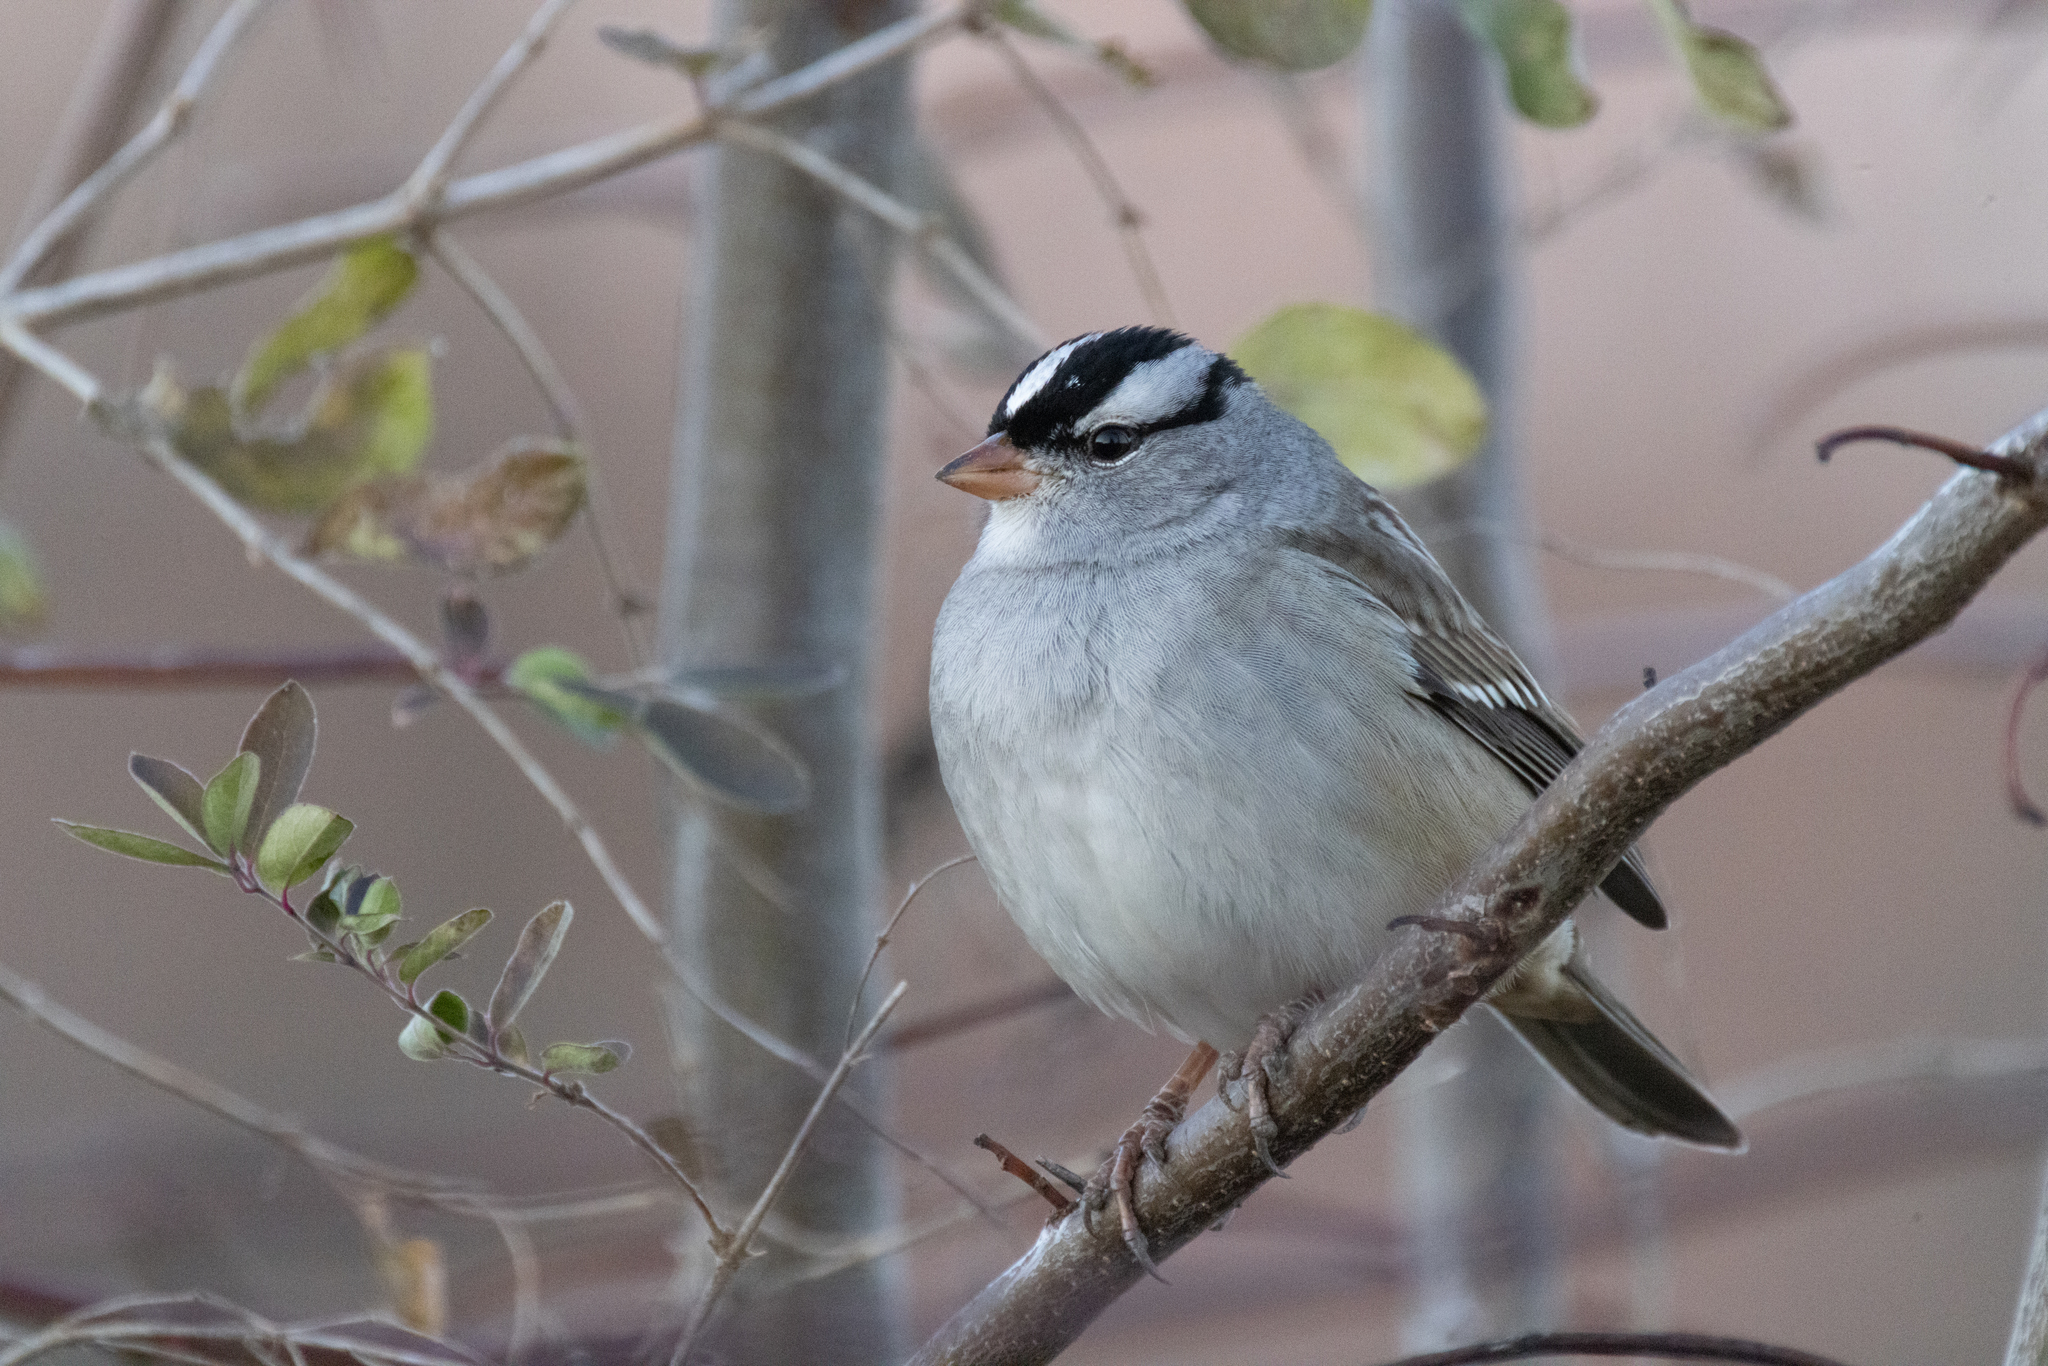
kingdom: Animalia
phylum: Chordata
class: Aves
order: Passeriformes
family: Passerellidae
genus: Zonotrichia
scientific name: Zonotrichia leucophrys
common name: White-crowned sparrow
